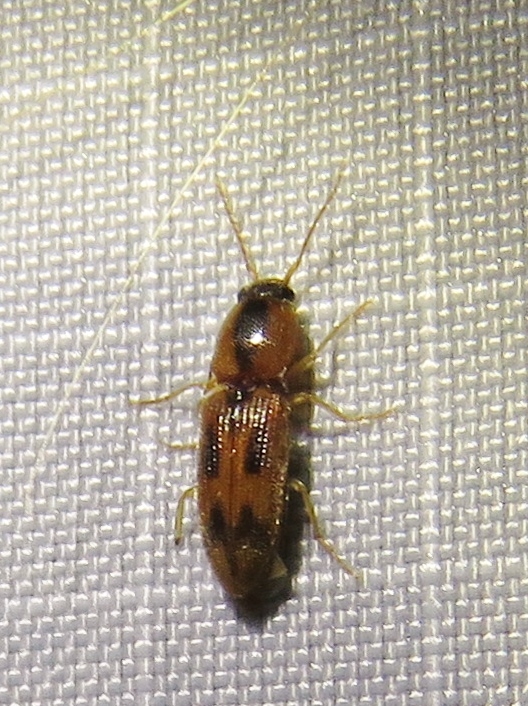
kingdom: Animalia
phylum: Arthropoda
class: Insecta
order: Coleoptera
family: Elateridae
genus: Aeolus
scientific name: Aeolus mellillus
